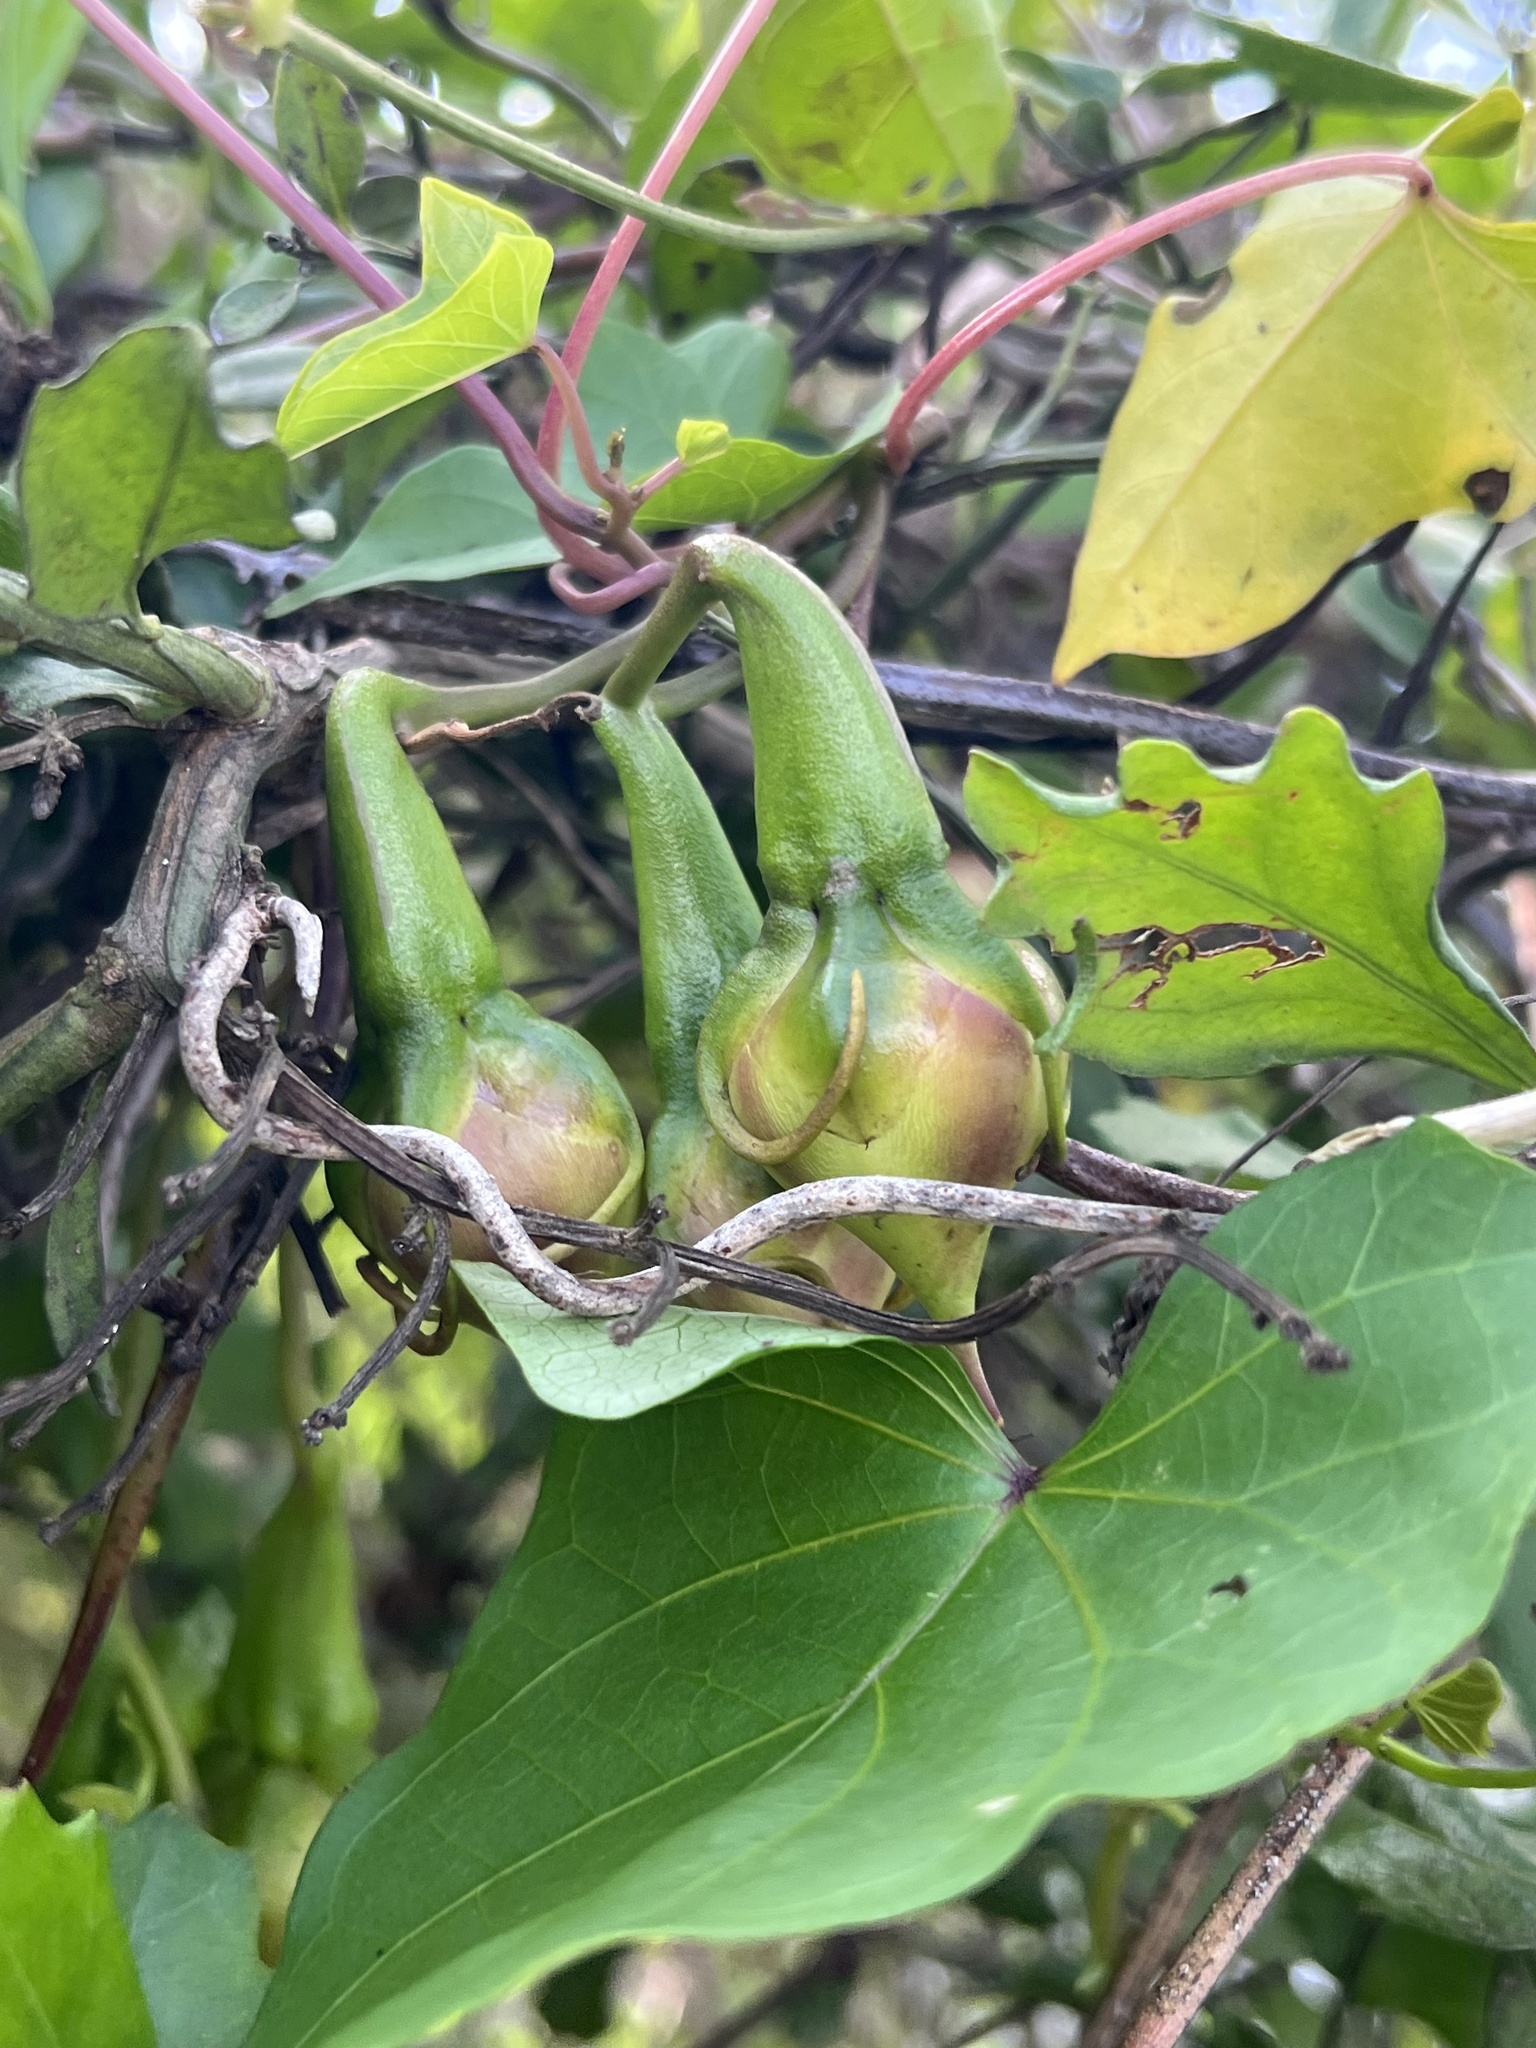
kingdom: Plantae
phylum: Tracheophyta
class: Magnoliopsida
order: Solanales
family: Convolvulaceae
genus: Ipomoea
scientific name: Ipomoea alba
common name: Moonflower
